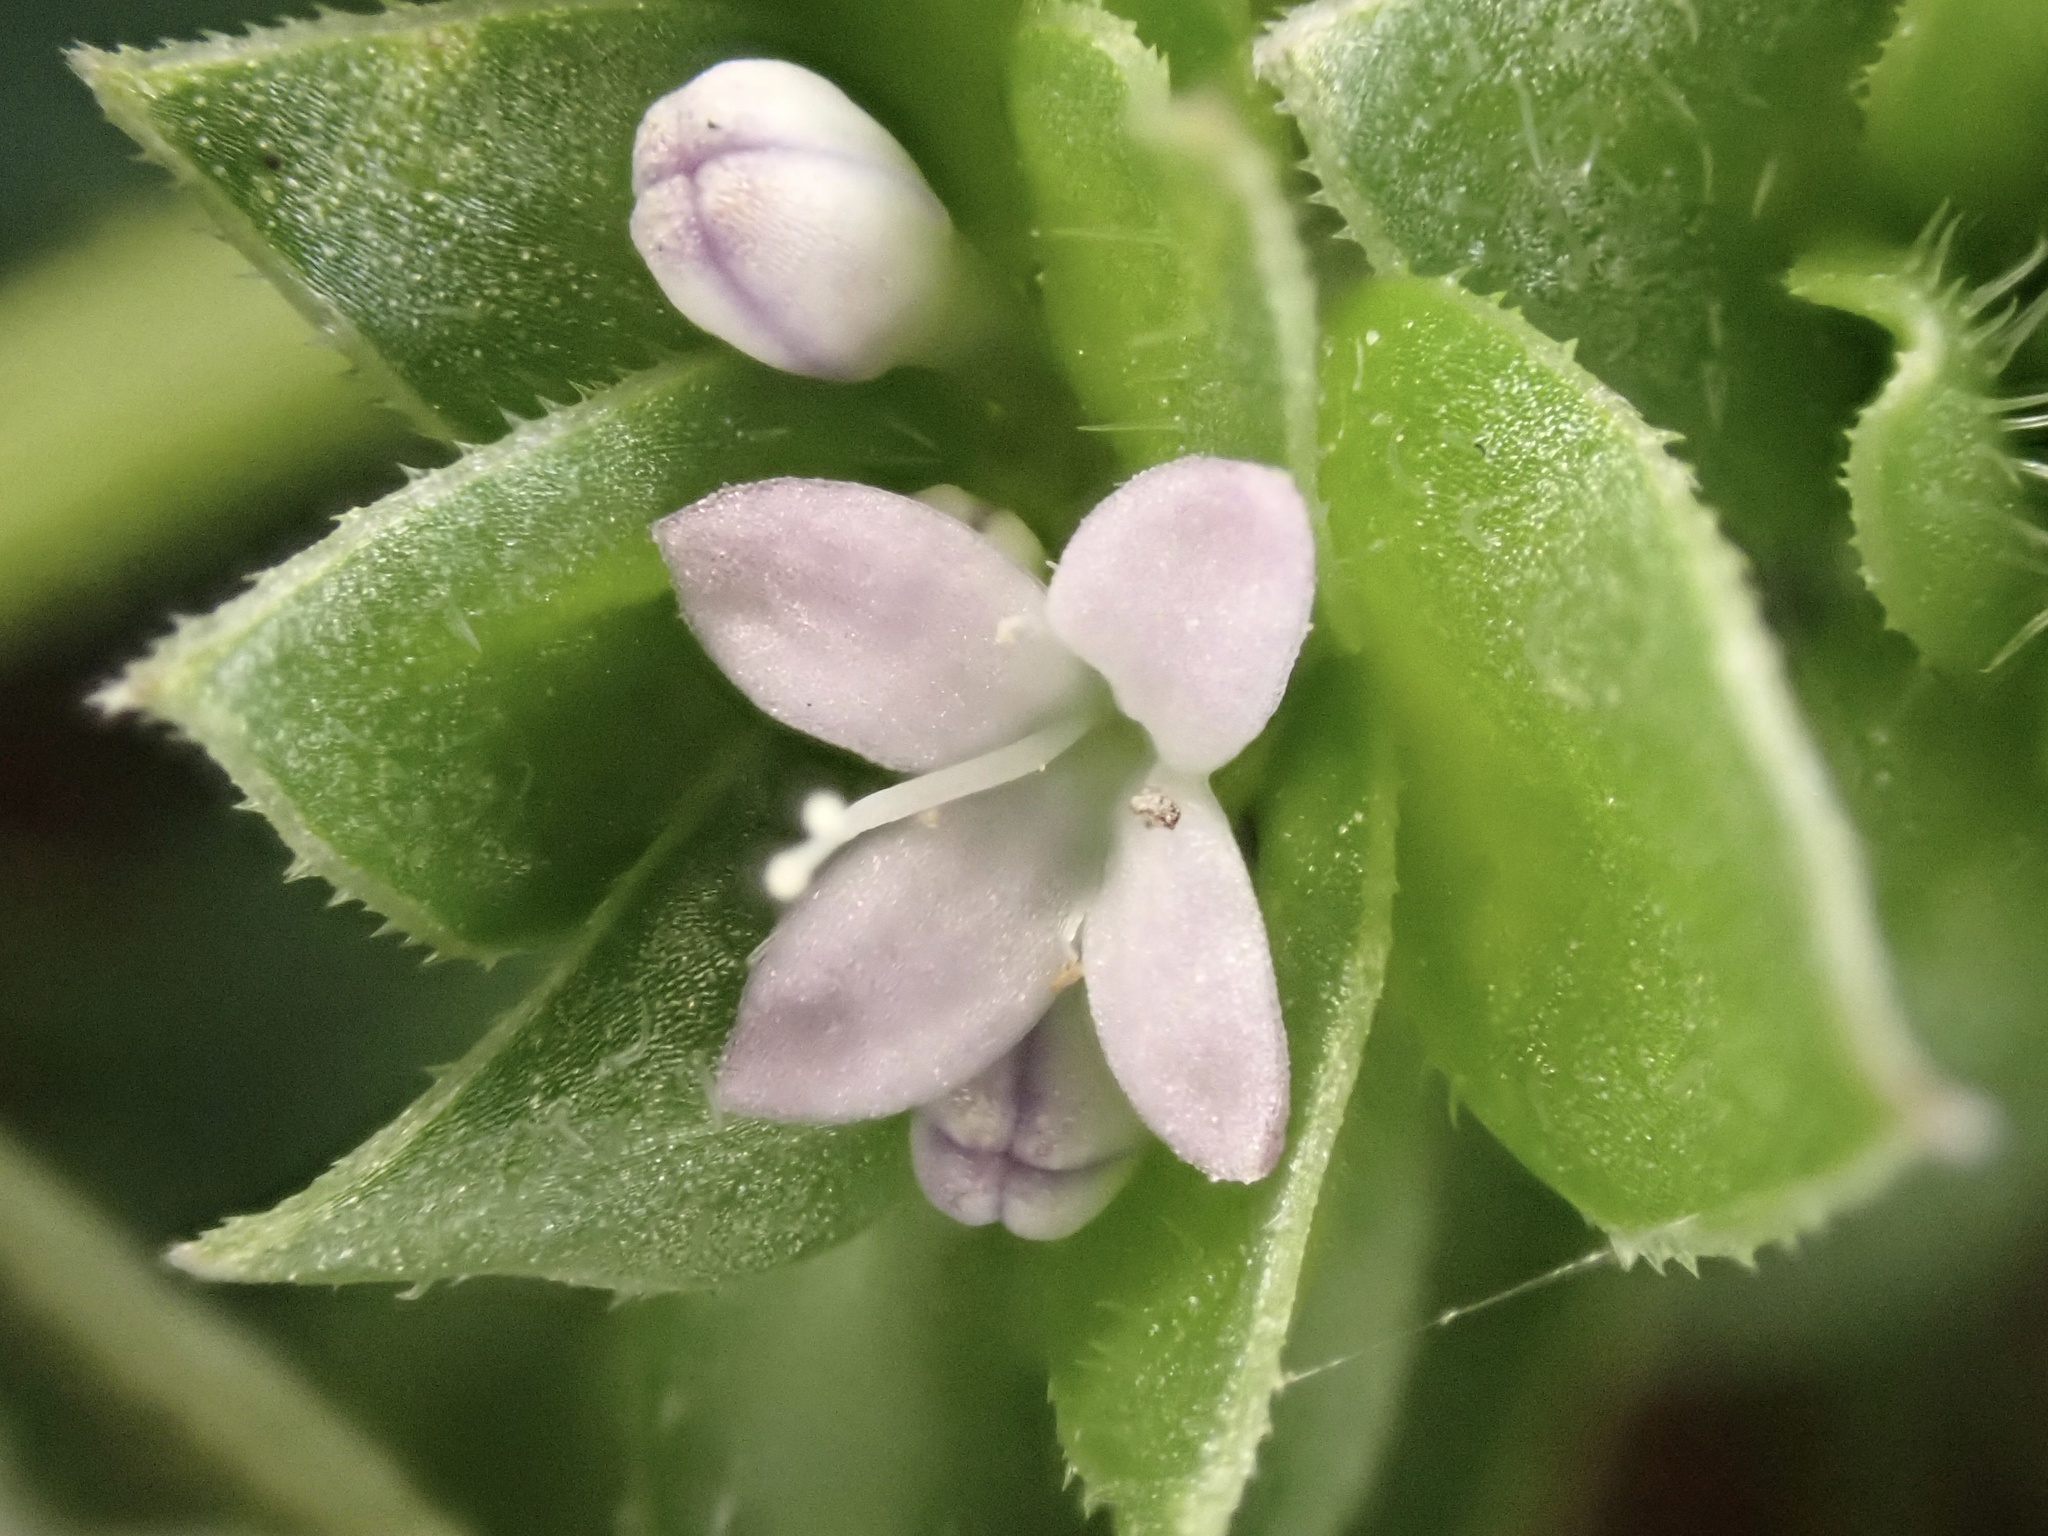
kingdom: Plantae
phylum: Tracheophyta
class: Magnoliopsida
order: Gentianales
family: Rubiaceae
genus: Sherardia
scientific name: Sherardia arvensis
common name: Field madder
